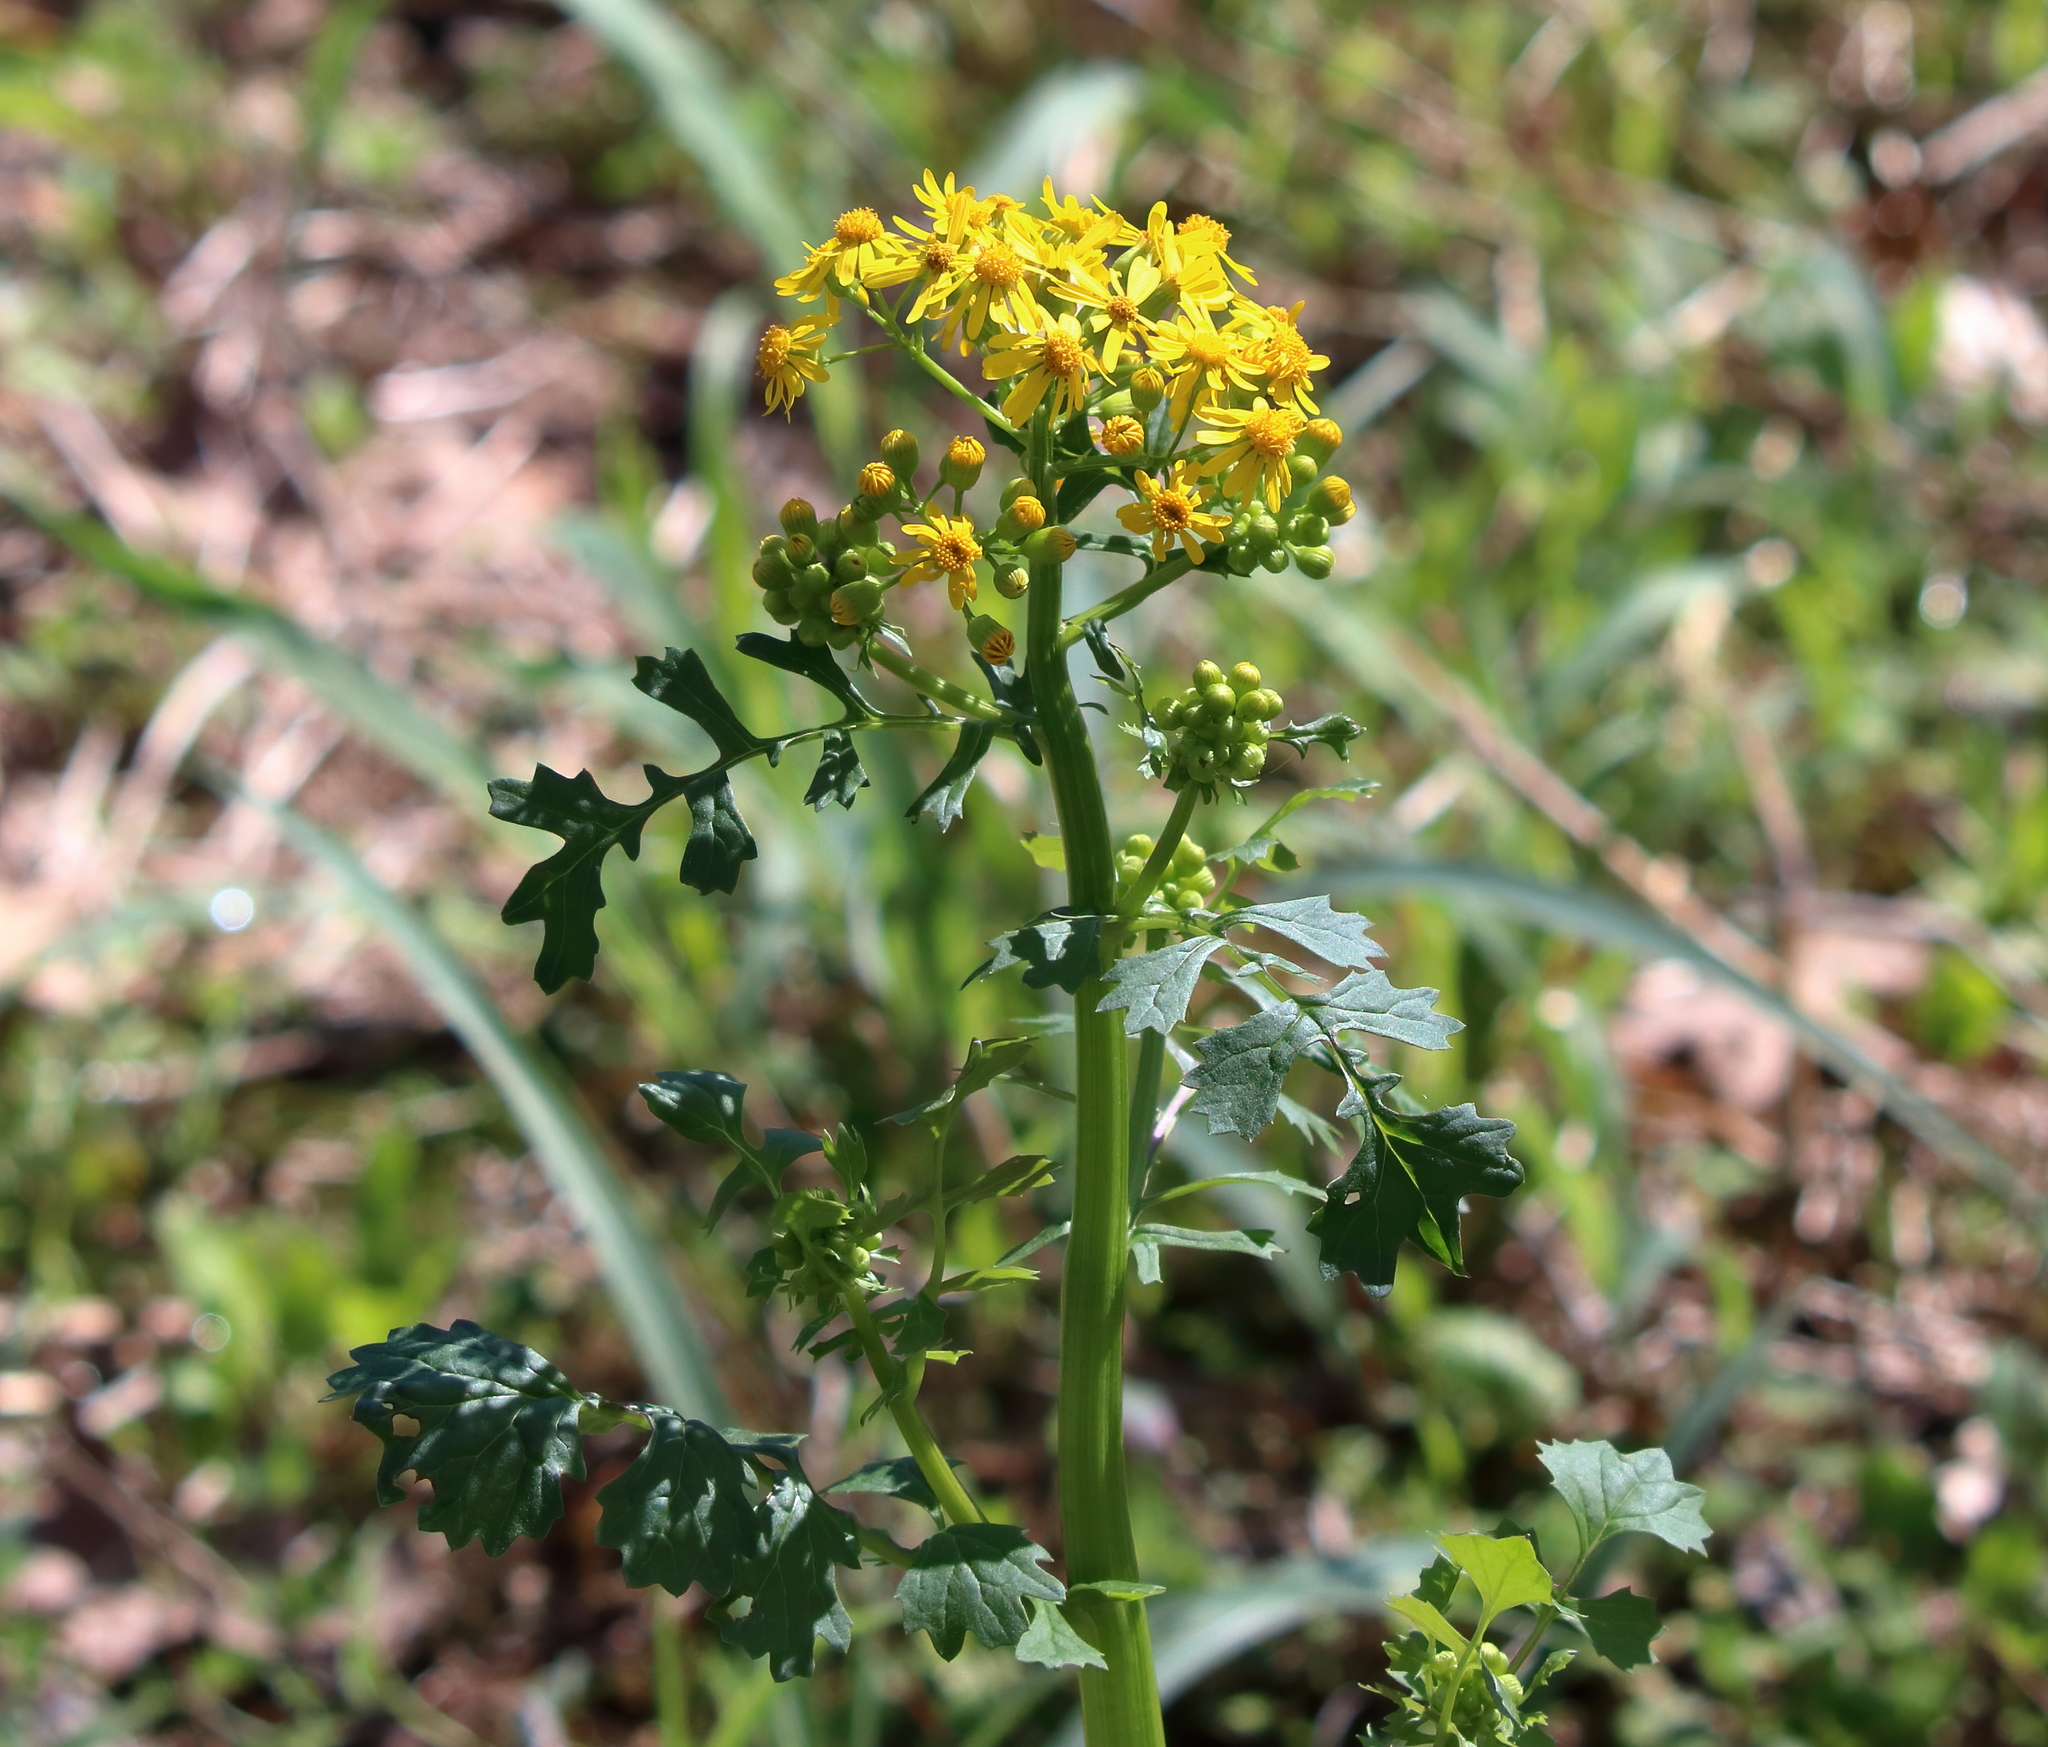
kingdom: Plantae
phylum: Tracheophyta
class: Magnoliopsida
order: Asterales
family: Asteraceae
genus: Packera
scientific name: Packera glabella
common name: Butterweed
